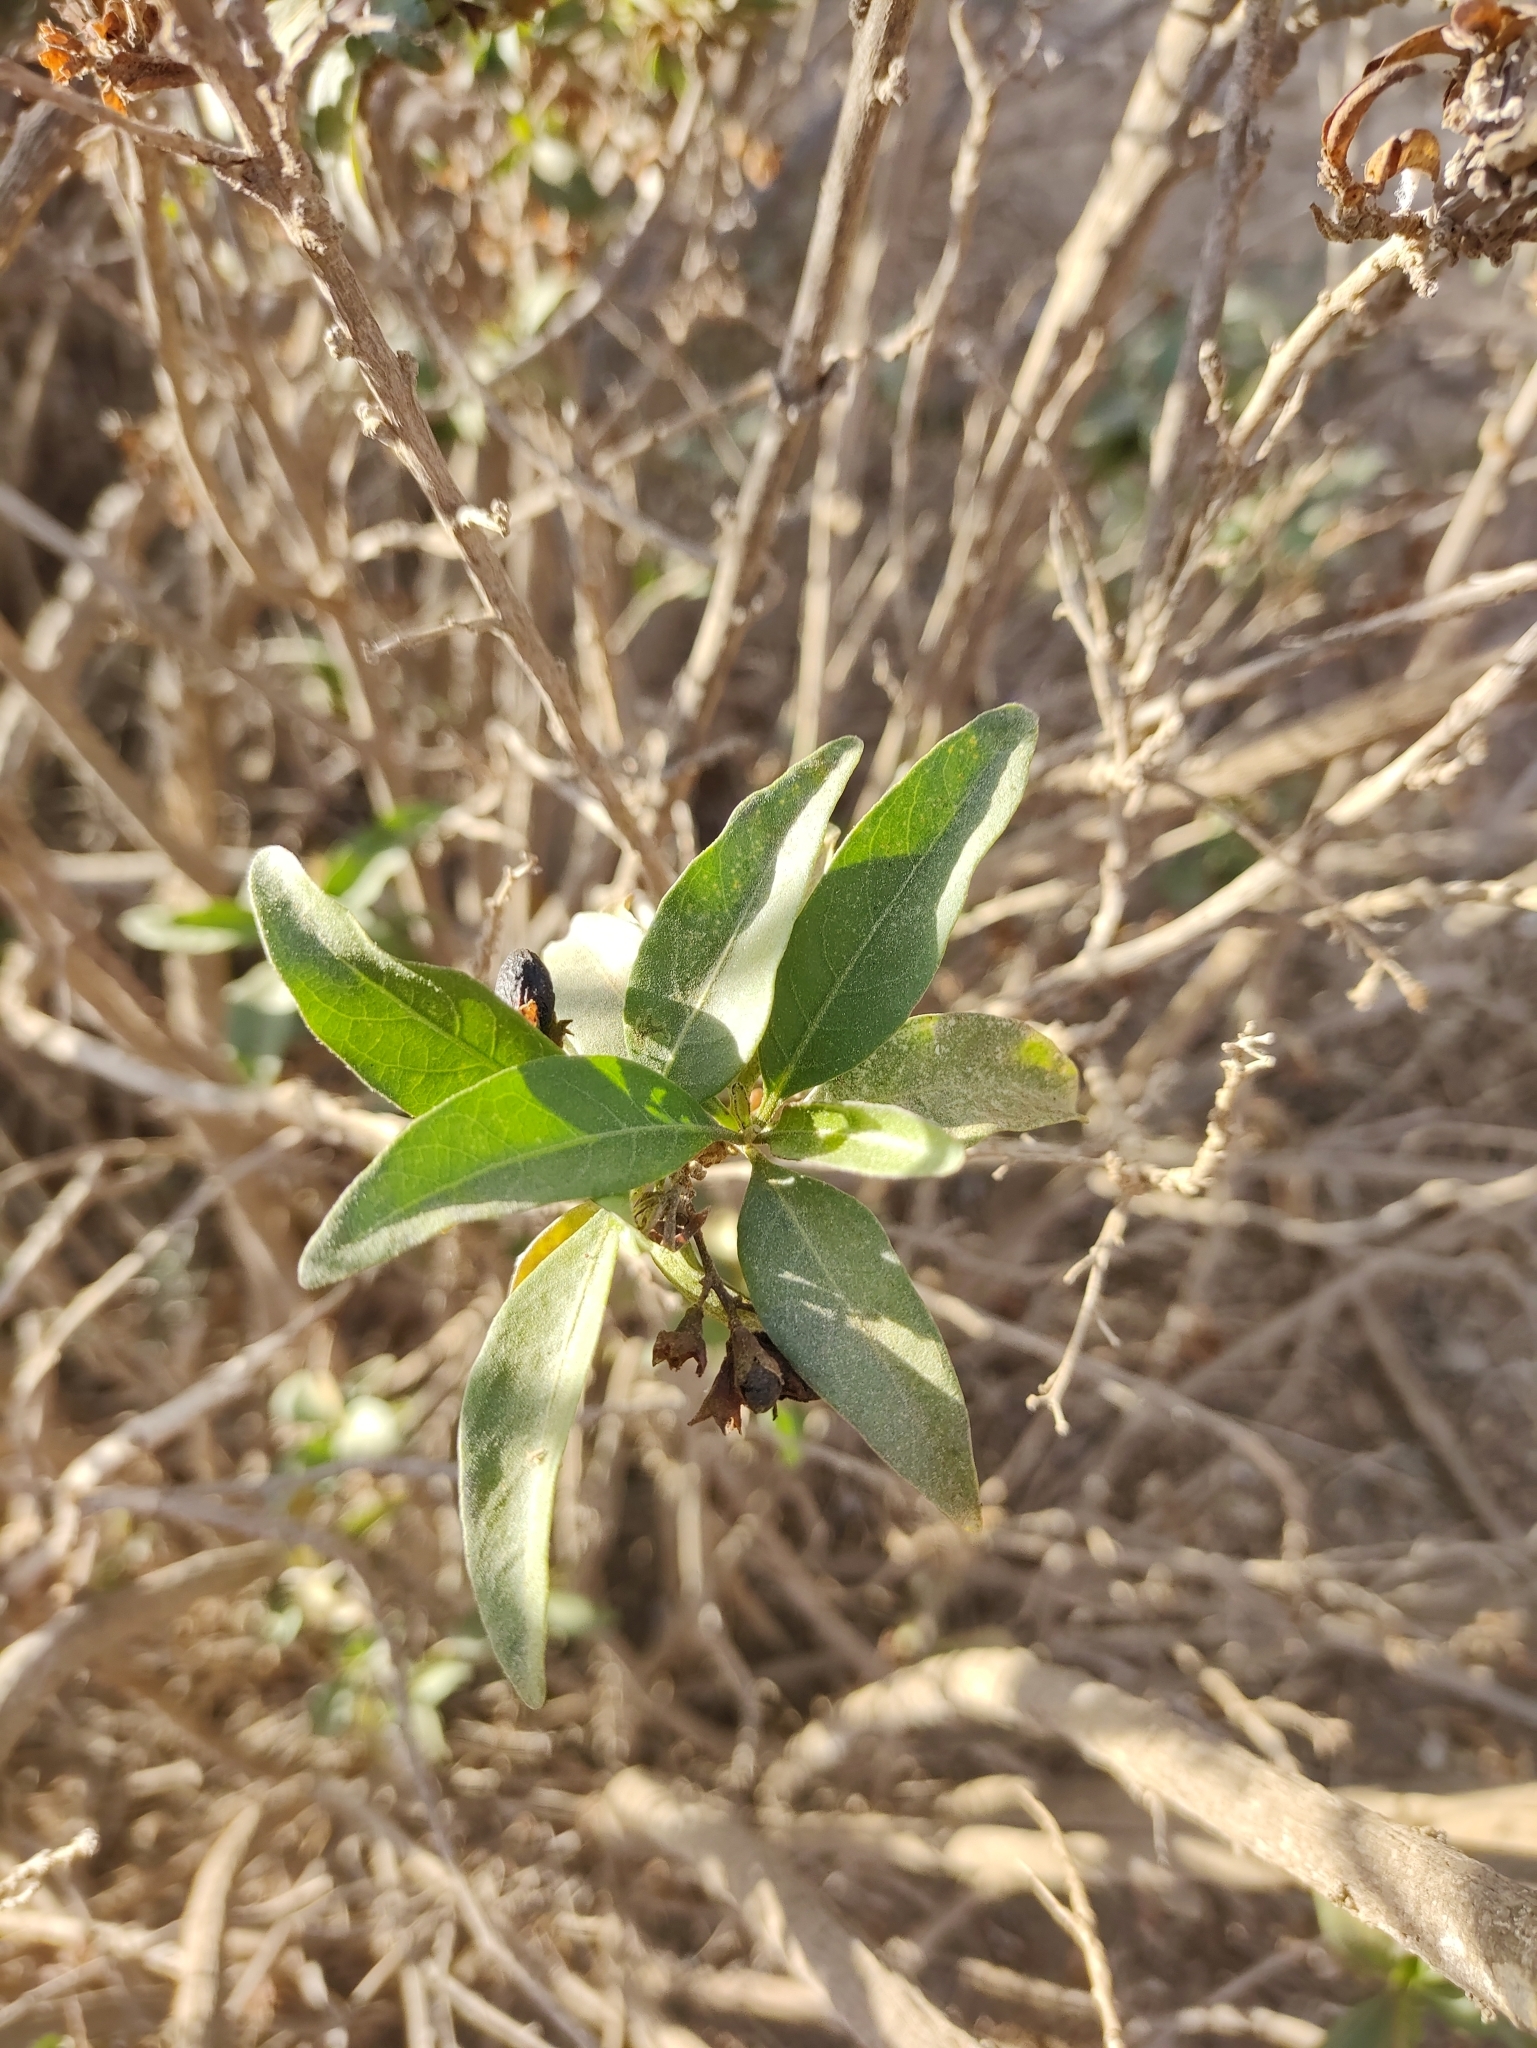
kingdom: Plantae
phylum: Tracheophyta
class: Magnoliopsida
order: Solanales
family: Solanaceae
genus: Cestrum
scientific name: Cestrum parqui
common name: Chilean cestrum
